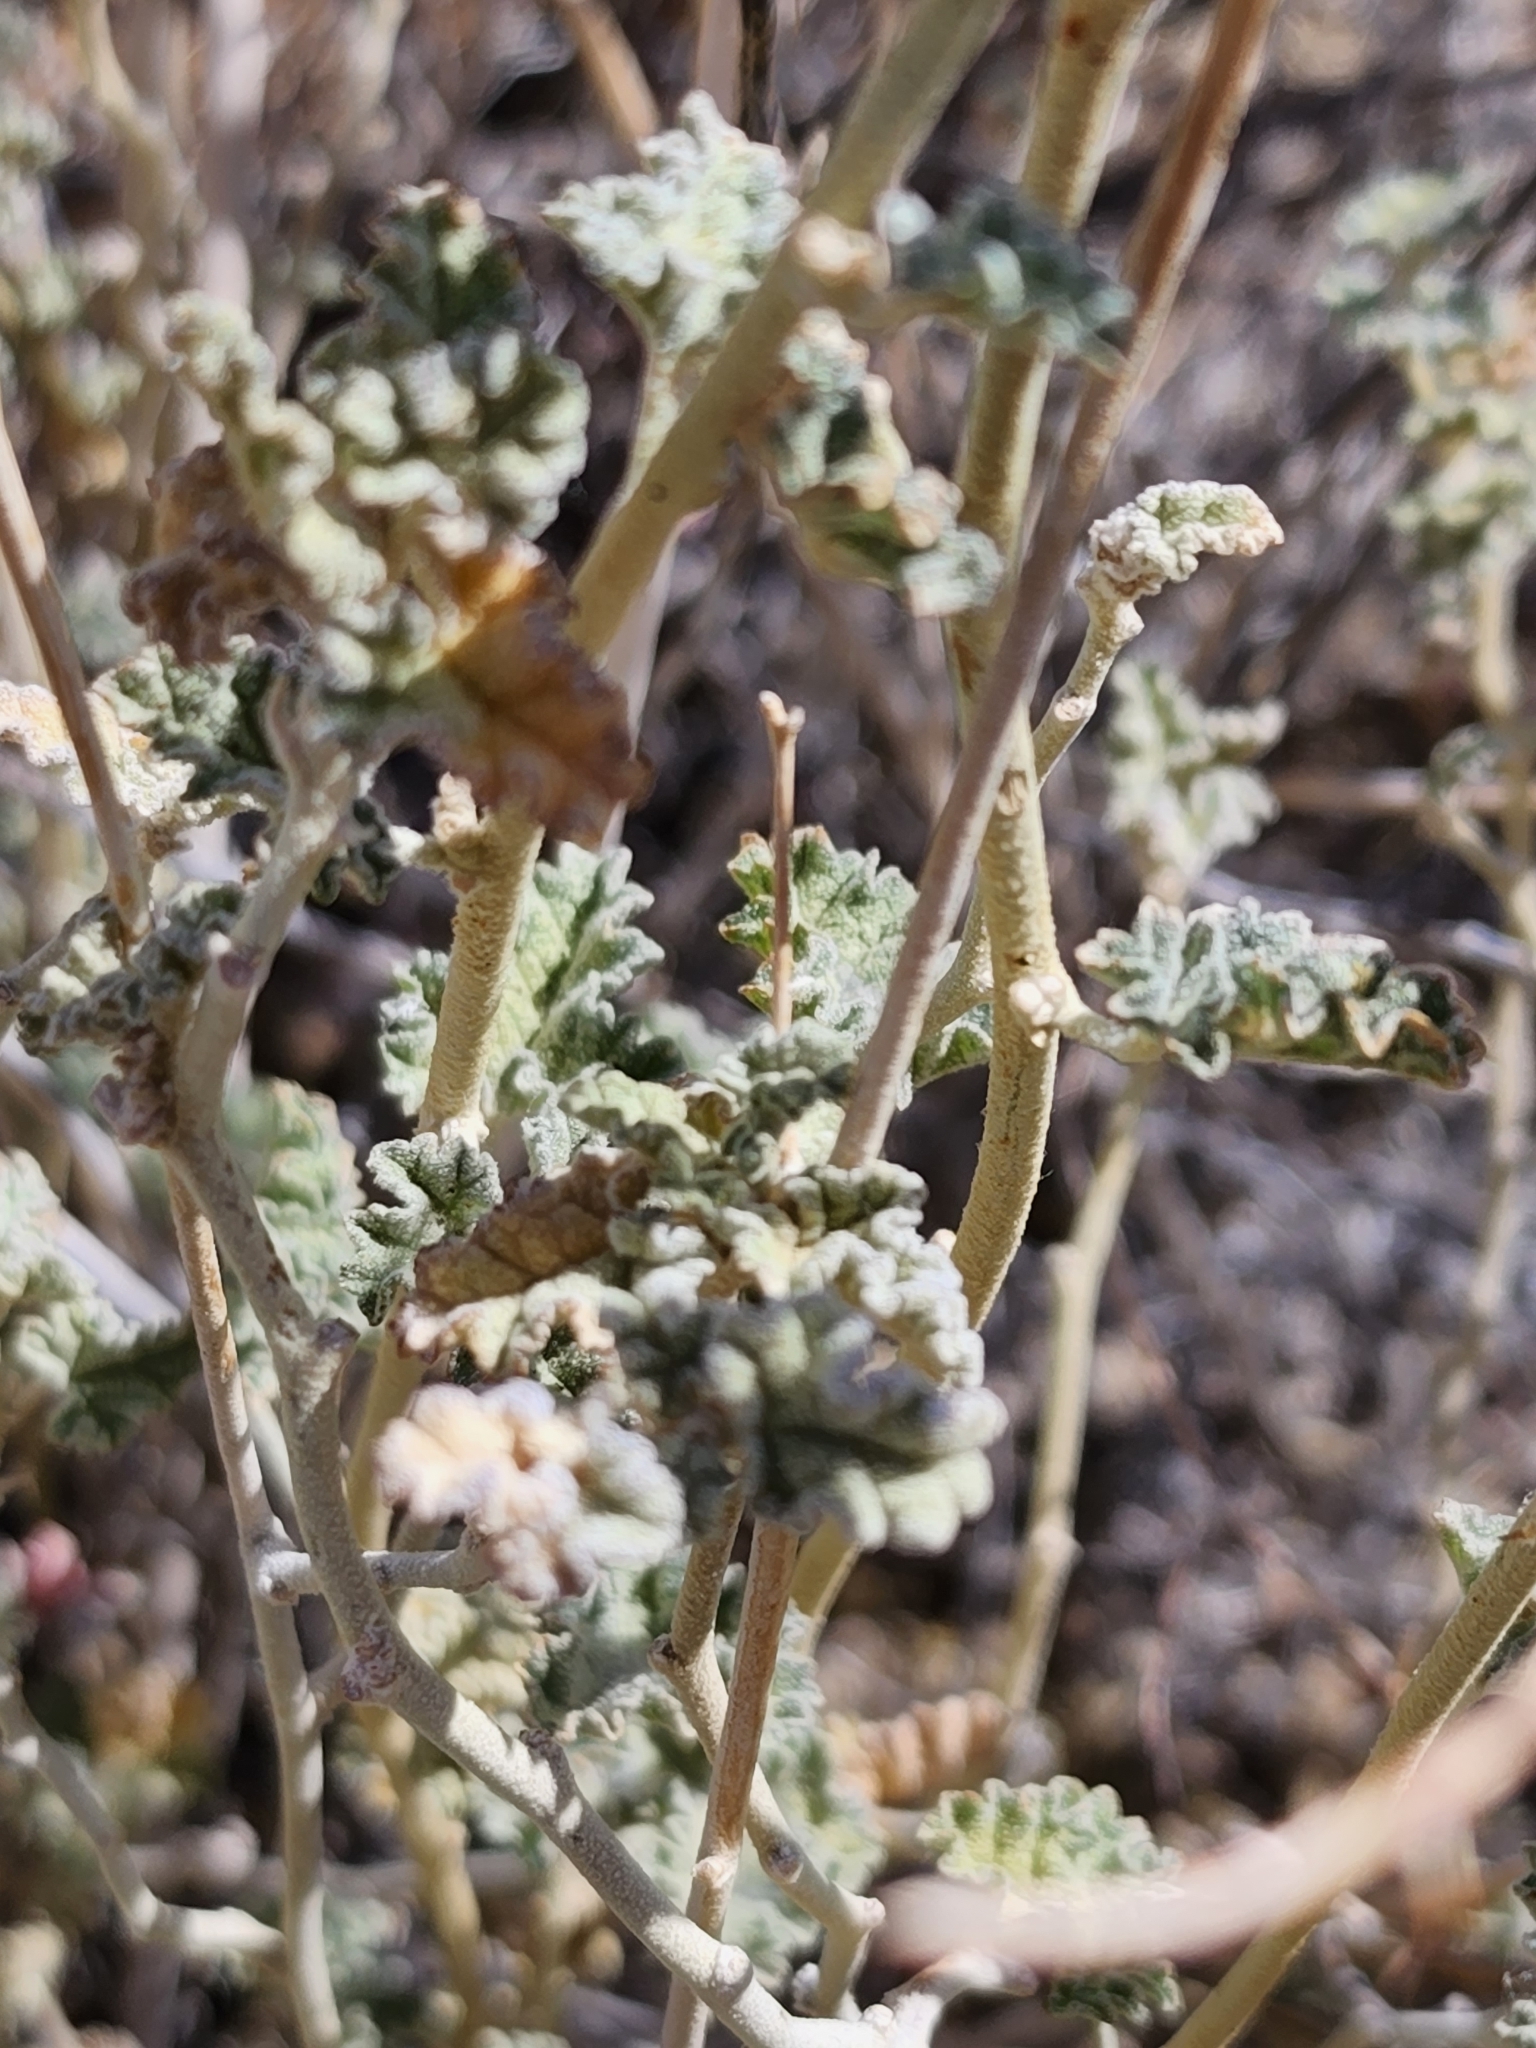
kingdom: Plantae
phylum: Tracheophyta
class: Magnoliopsida
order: Malvales
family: Malvaceae
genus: Sphaeralcea
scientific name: Sphaeralcea ambigua
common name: Apricot globe-mallow
